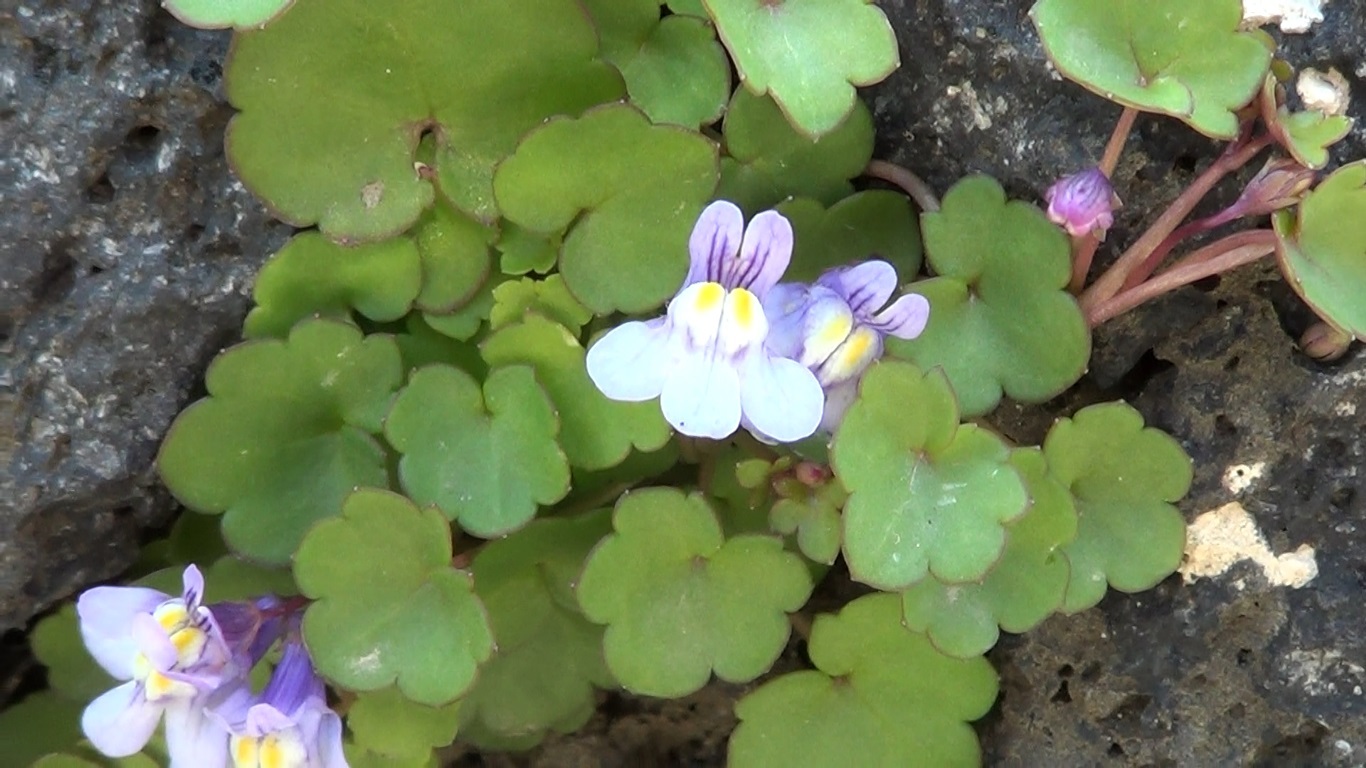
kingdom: Plantae
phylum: Tracheophyta
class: Magnoliopsida
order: Lamiales
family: Plantaginaceae
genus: Cymbalaria
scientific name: Cymbalaria muralis
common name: Ivy-leaved toadflax
